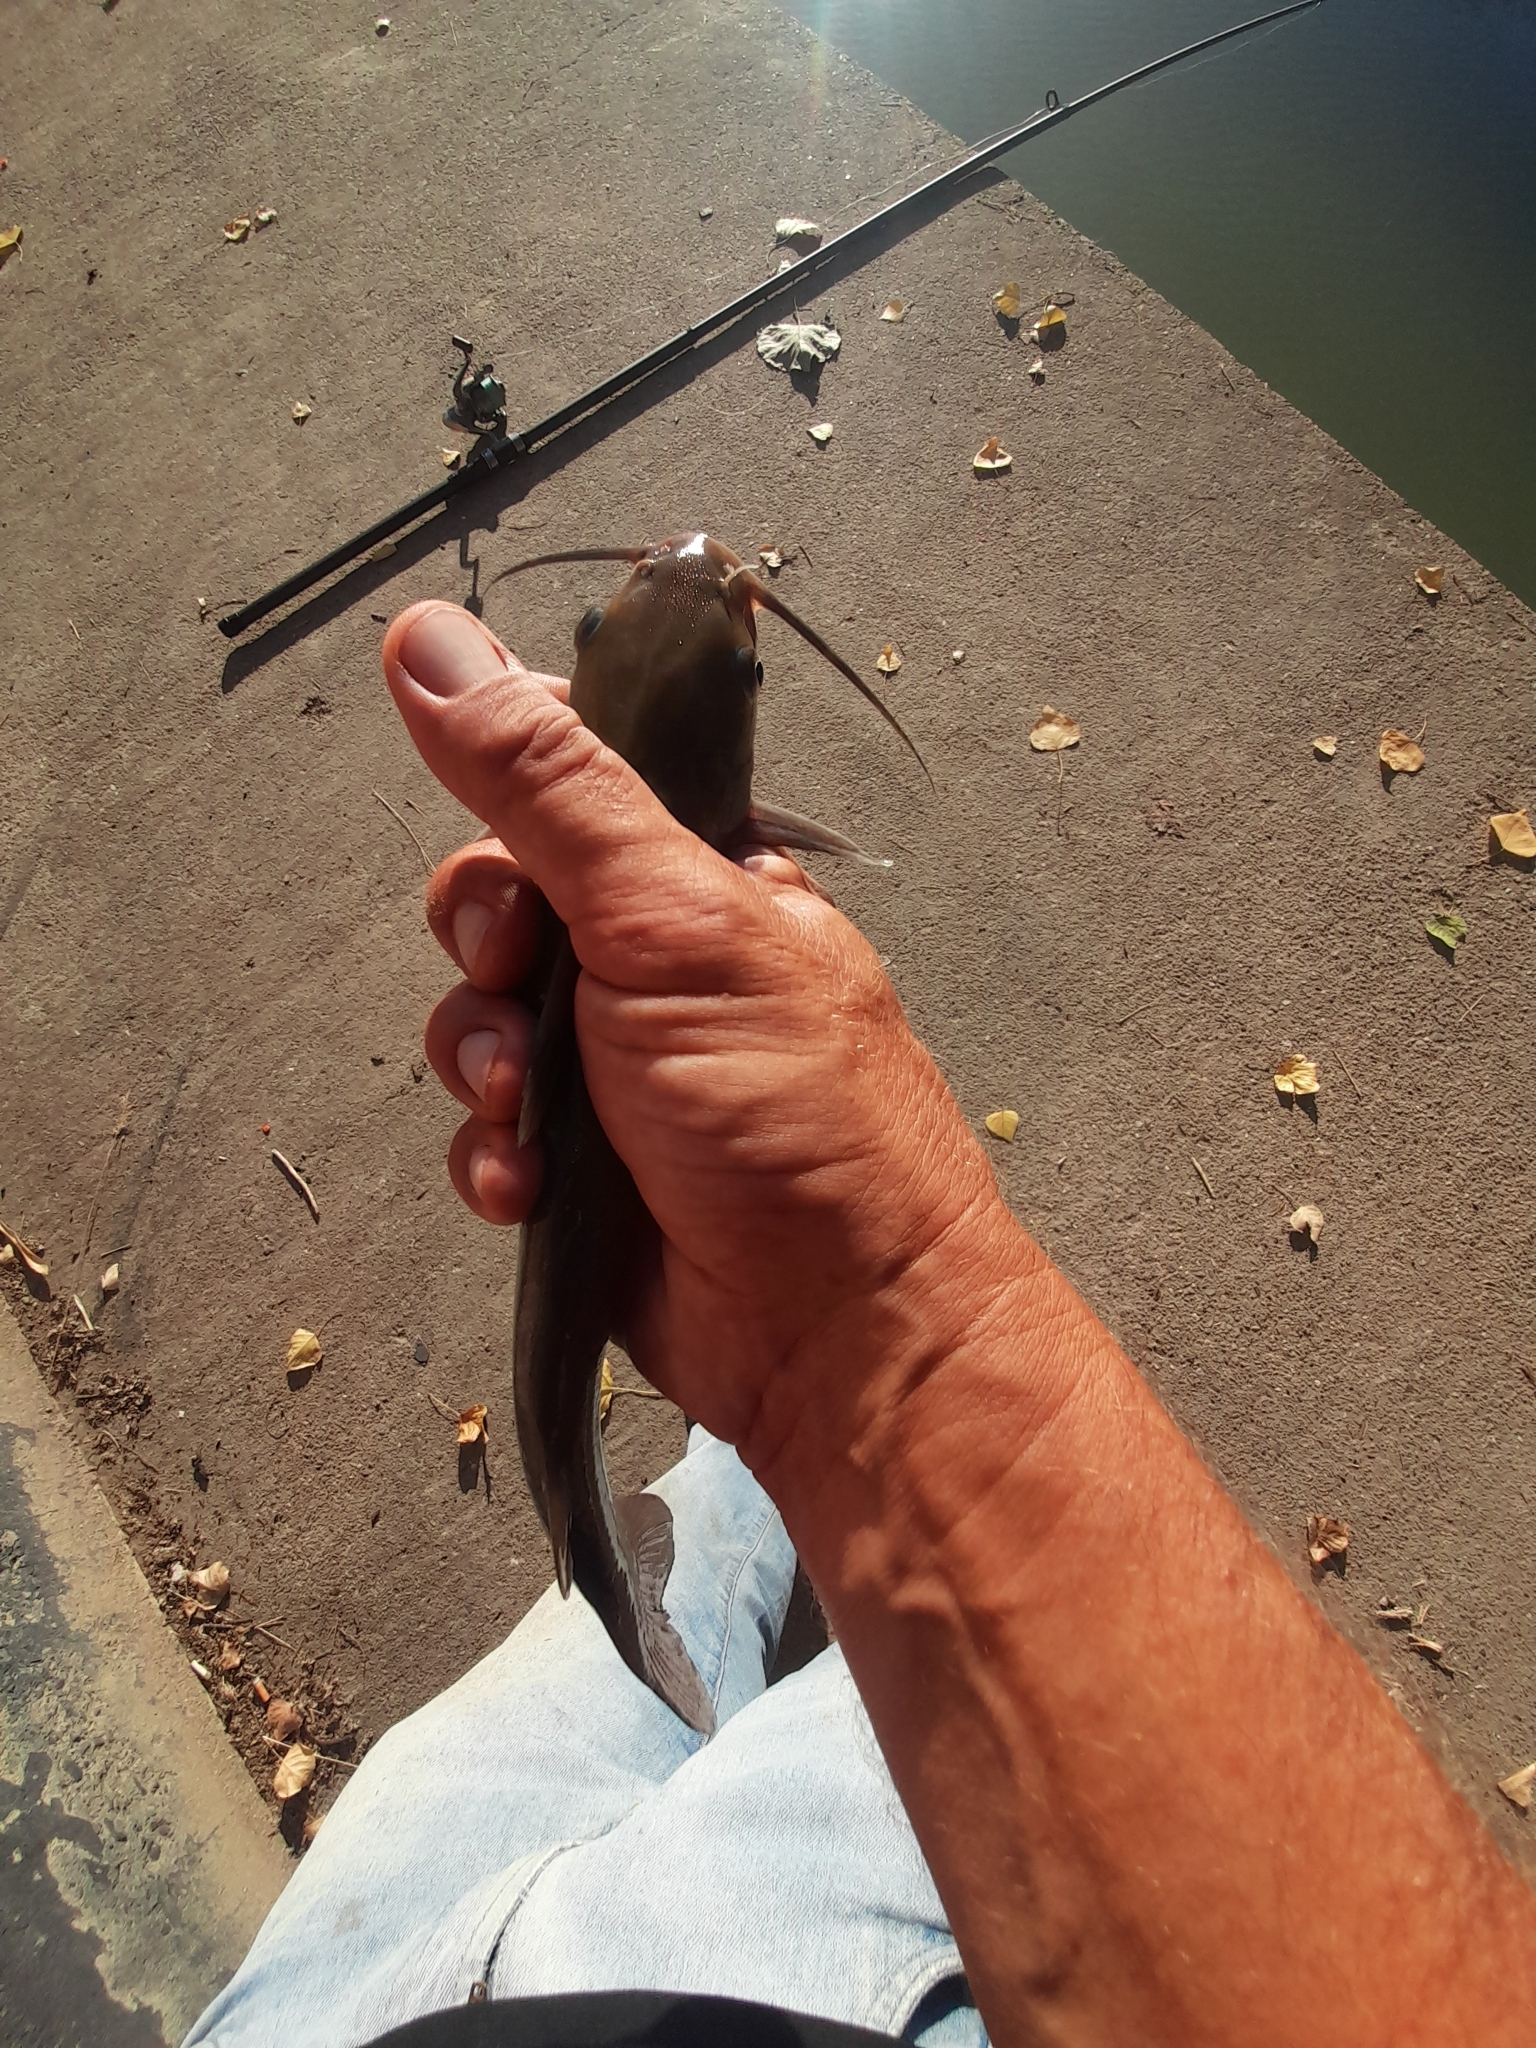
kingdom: Animalia
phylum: Chordata
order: Siluriformes
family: Ictaluridae
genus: Ictalurus
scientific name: Ictalurus punctatus
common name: Channel catfish
